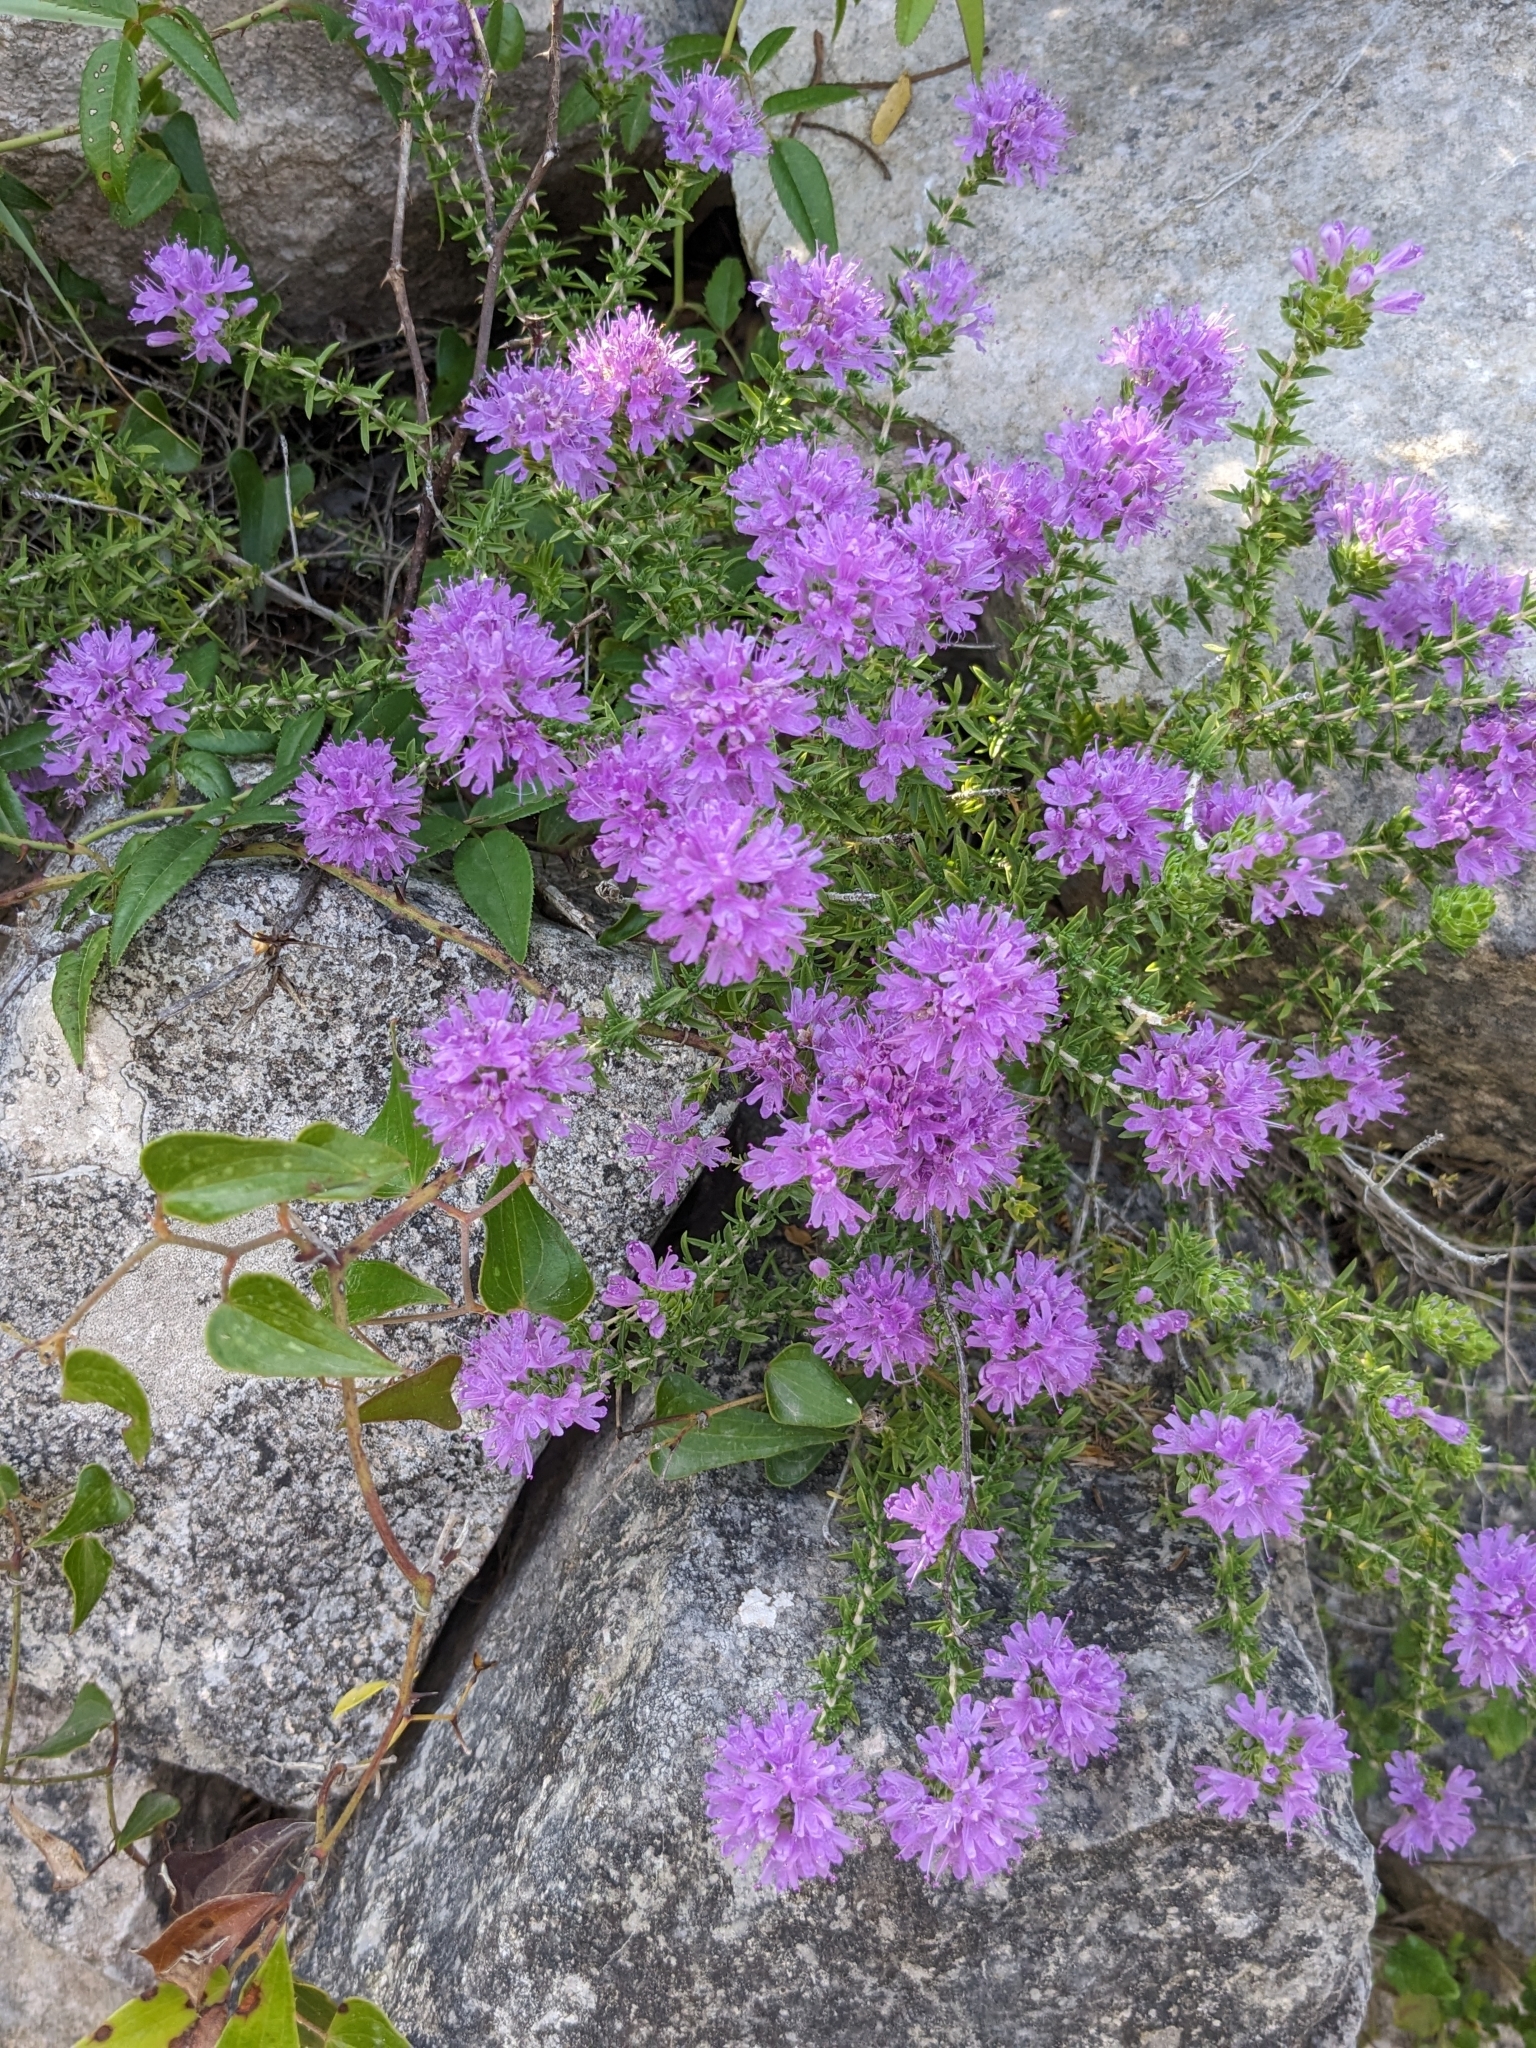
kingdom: Plantae
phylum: Tracheophyta
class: Magnoliopsida
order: Lamiales
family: Lamiaceae
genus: Thymbra
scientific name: Thymbra capitata
